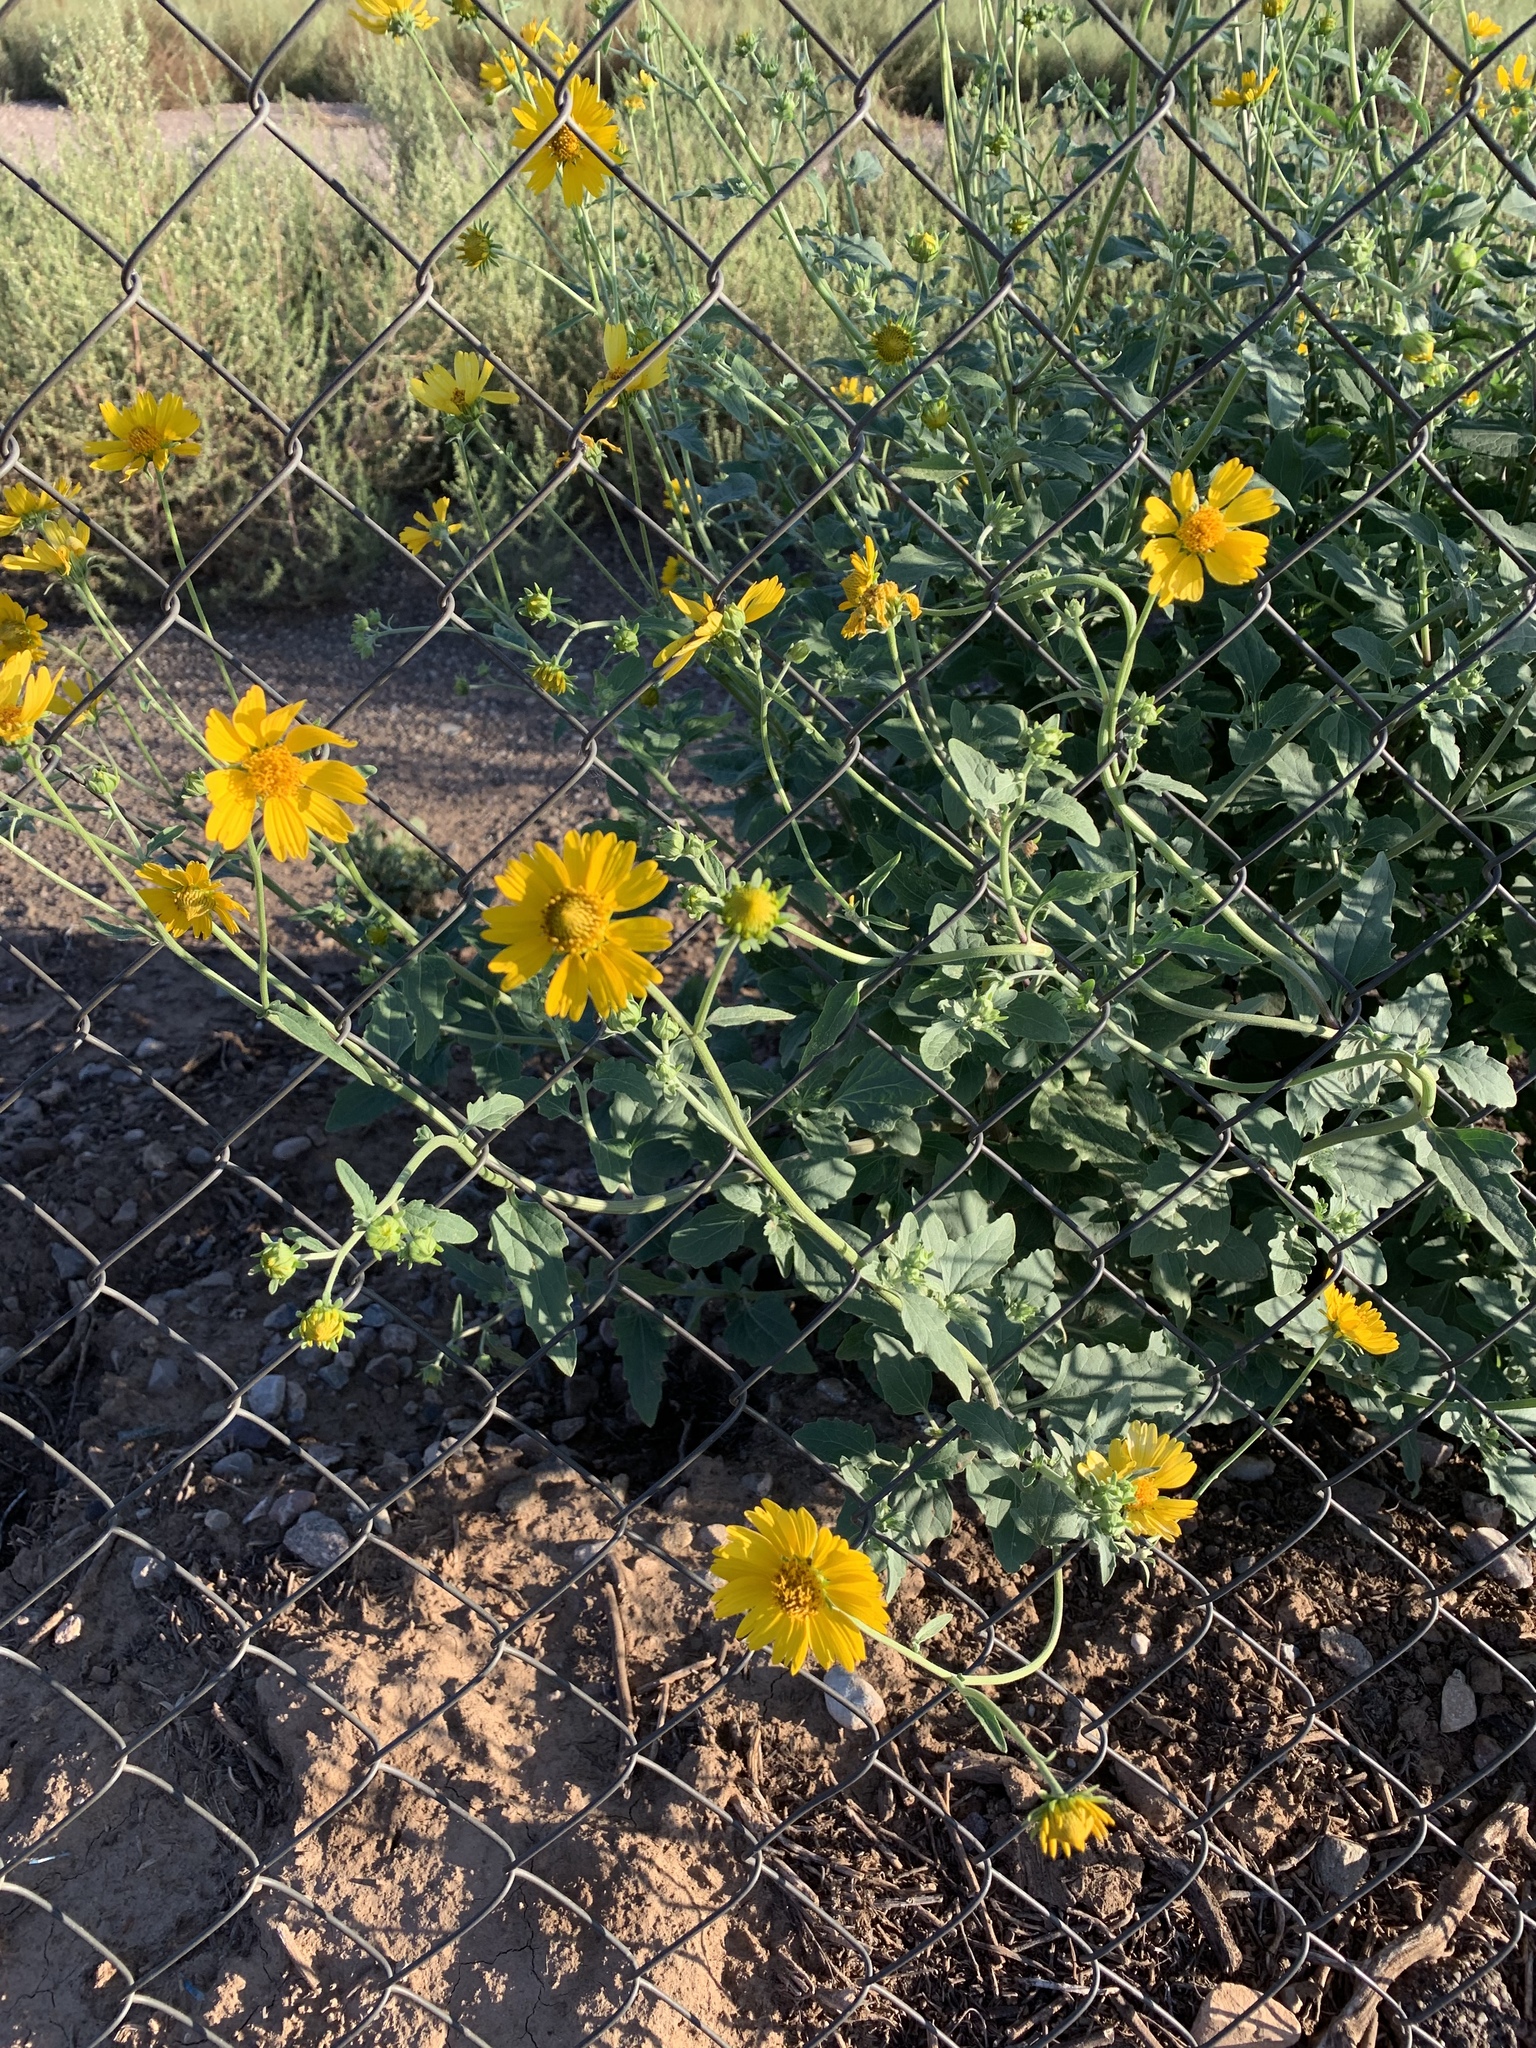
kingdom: Plantae
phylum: Tracheophyta
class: Magnoliopsida
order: Asterales
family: Asteraceae
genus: Verbesina
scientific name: Verbesina encelioides
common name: Golden crownbeard
